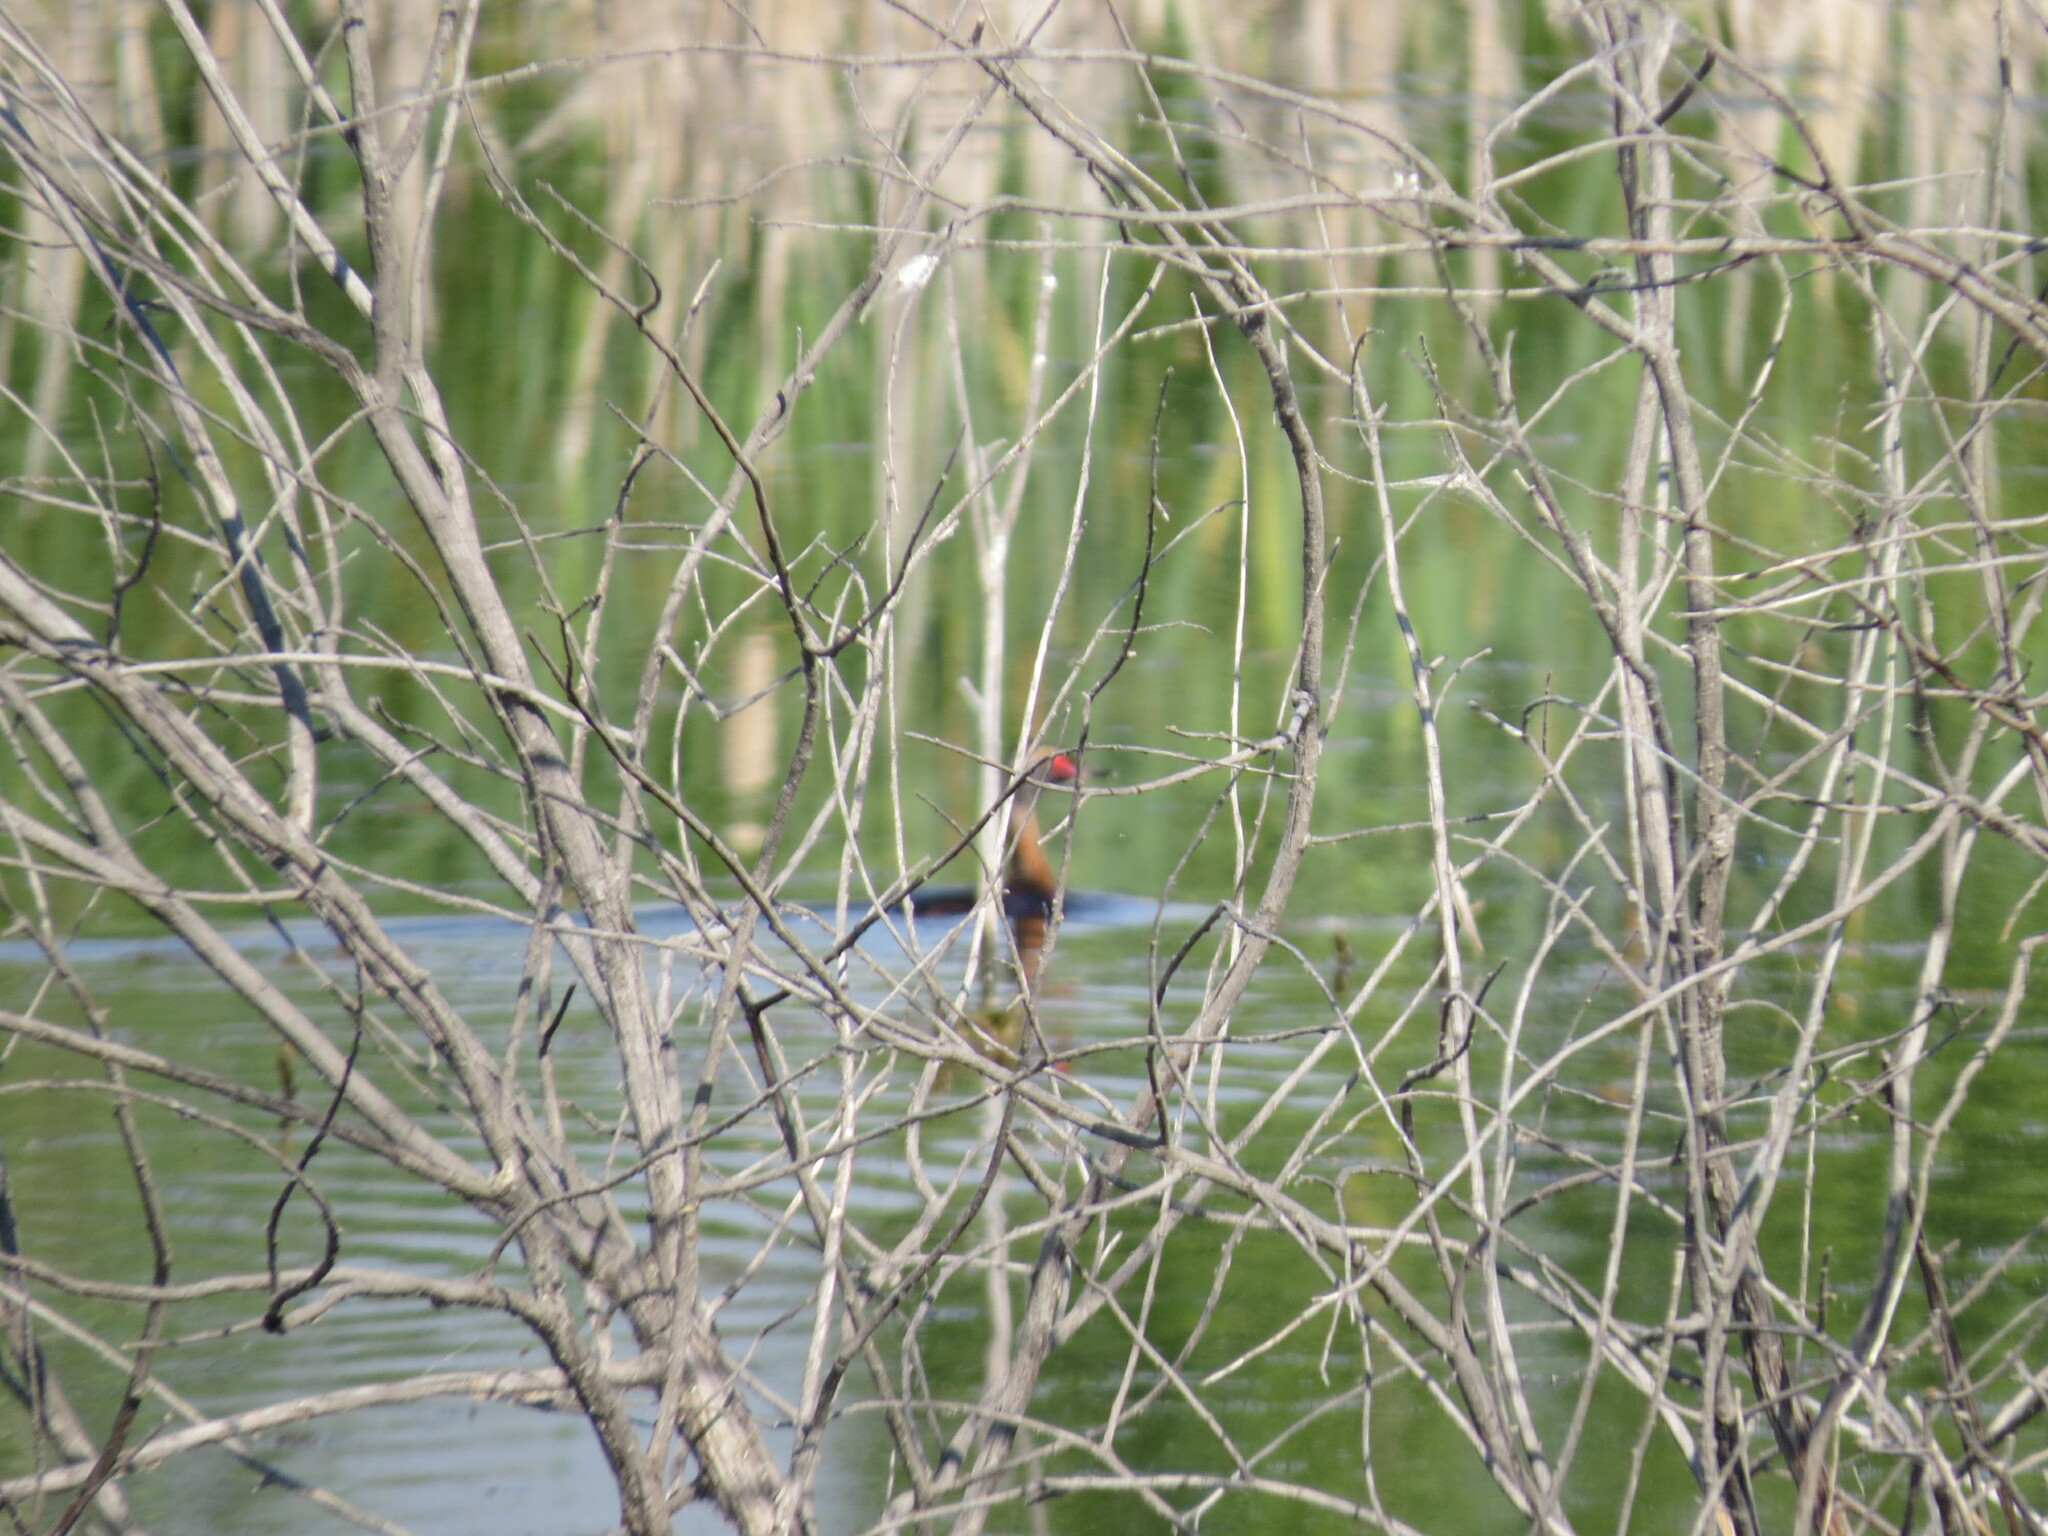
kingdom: Animalia
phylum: Chordata
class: Aves
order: Podicipediformes
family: Podicipedidae
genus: Podiceps
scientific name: Podiceps auritus
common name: Horned grebe
